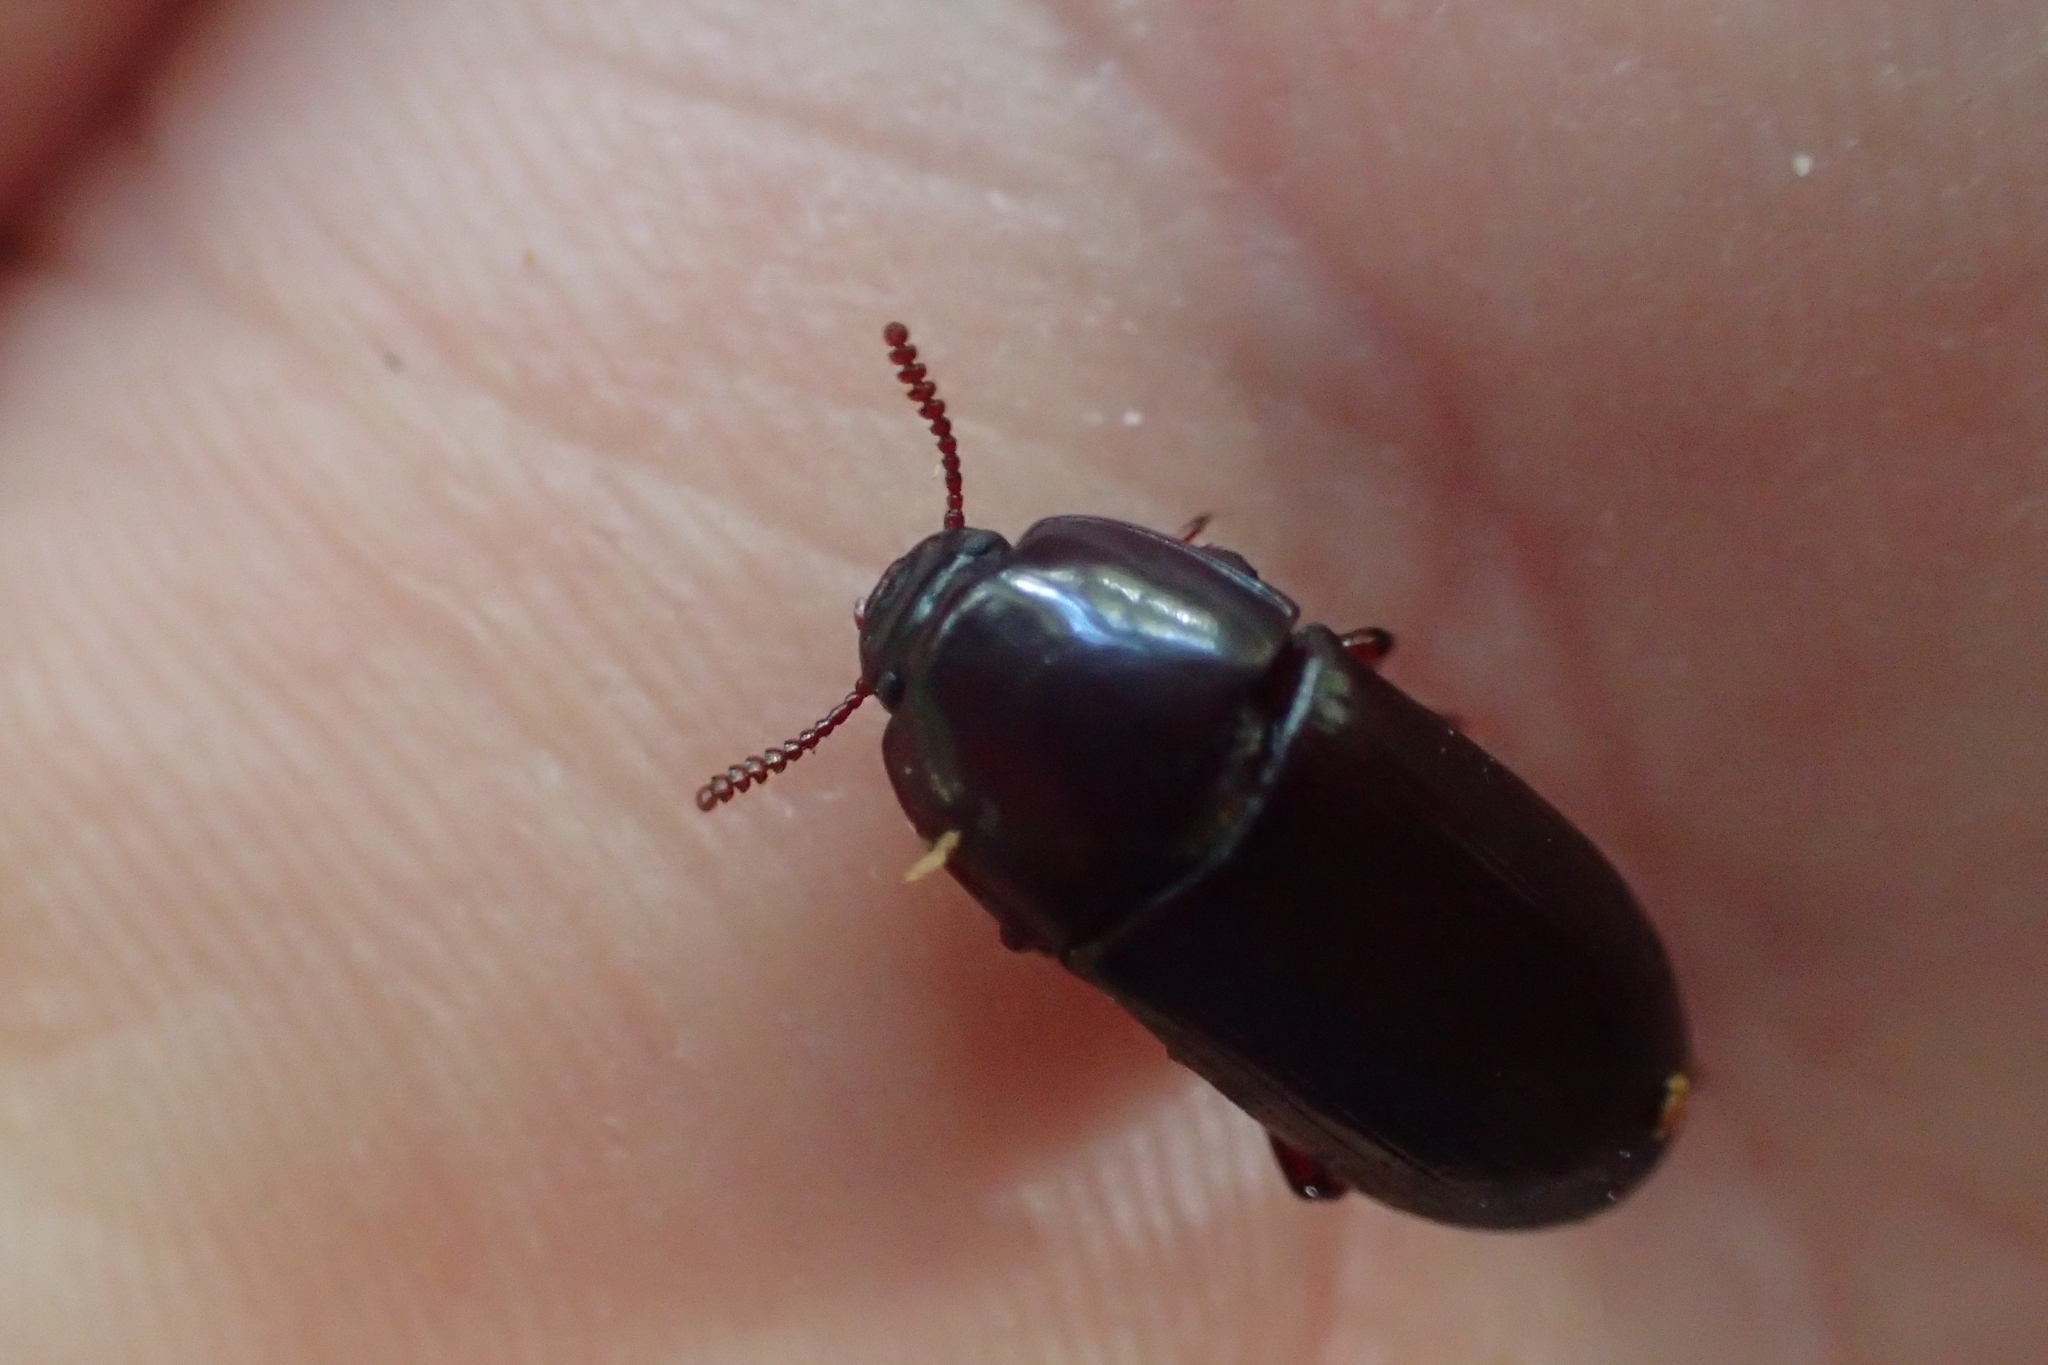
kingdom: Animalia
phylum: Arthropoda
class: Insecta
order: Coleoptera
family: Tenebrionidae
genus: Uloma
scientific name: Uloma tenebrionoides
